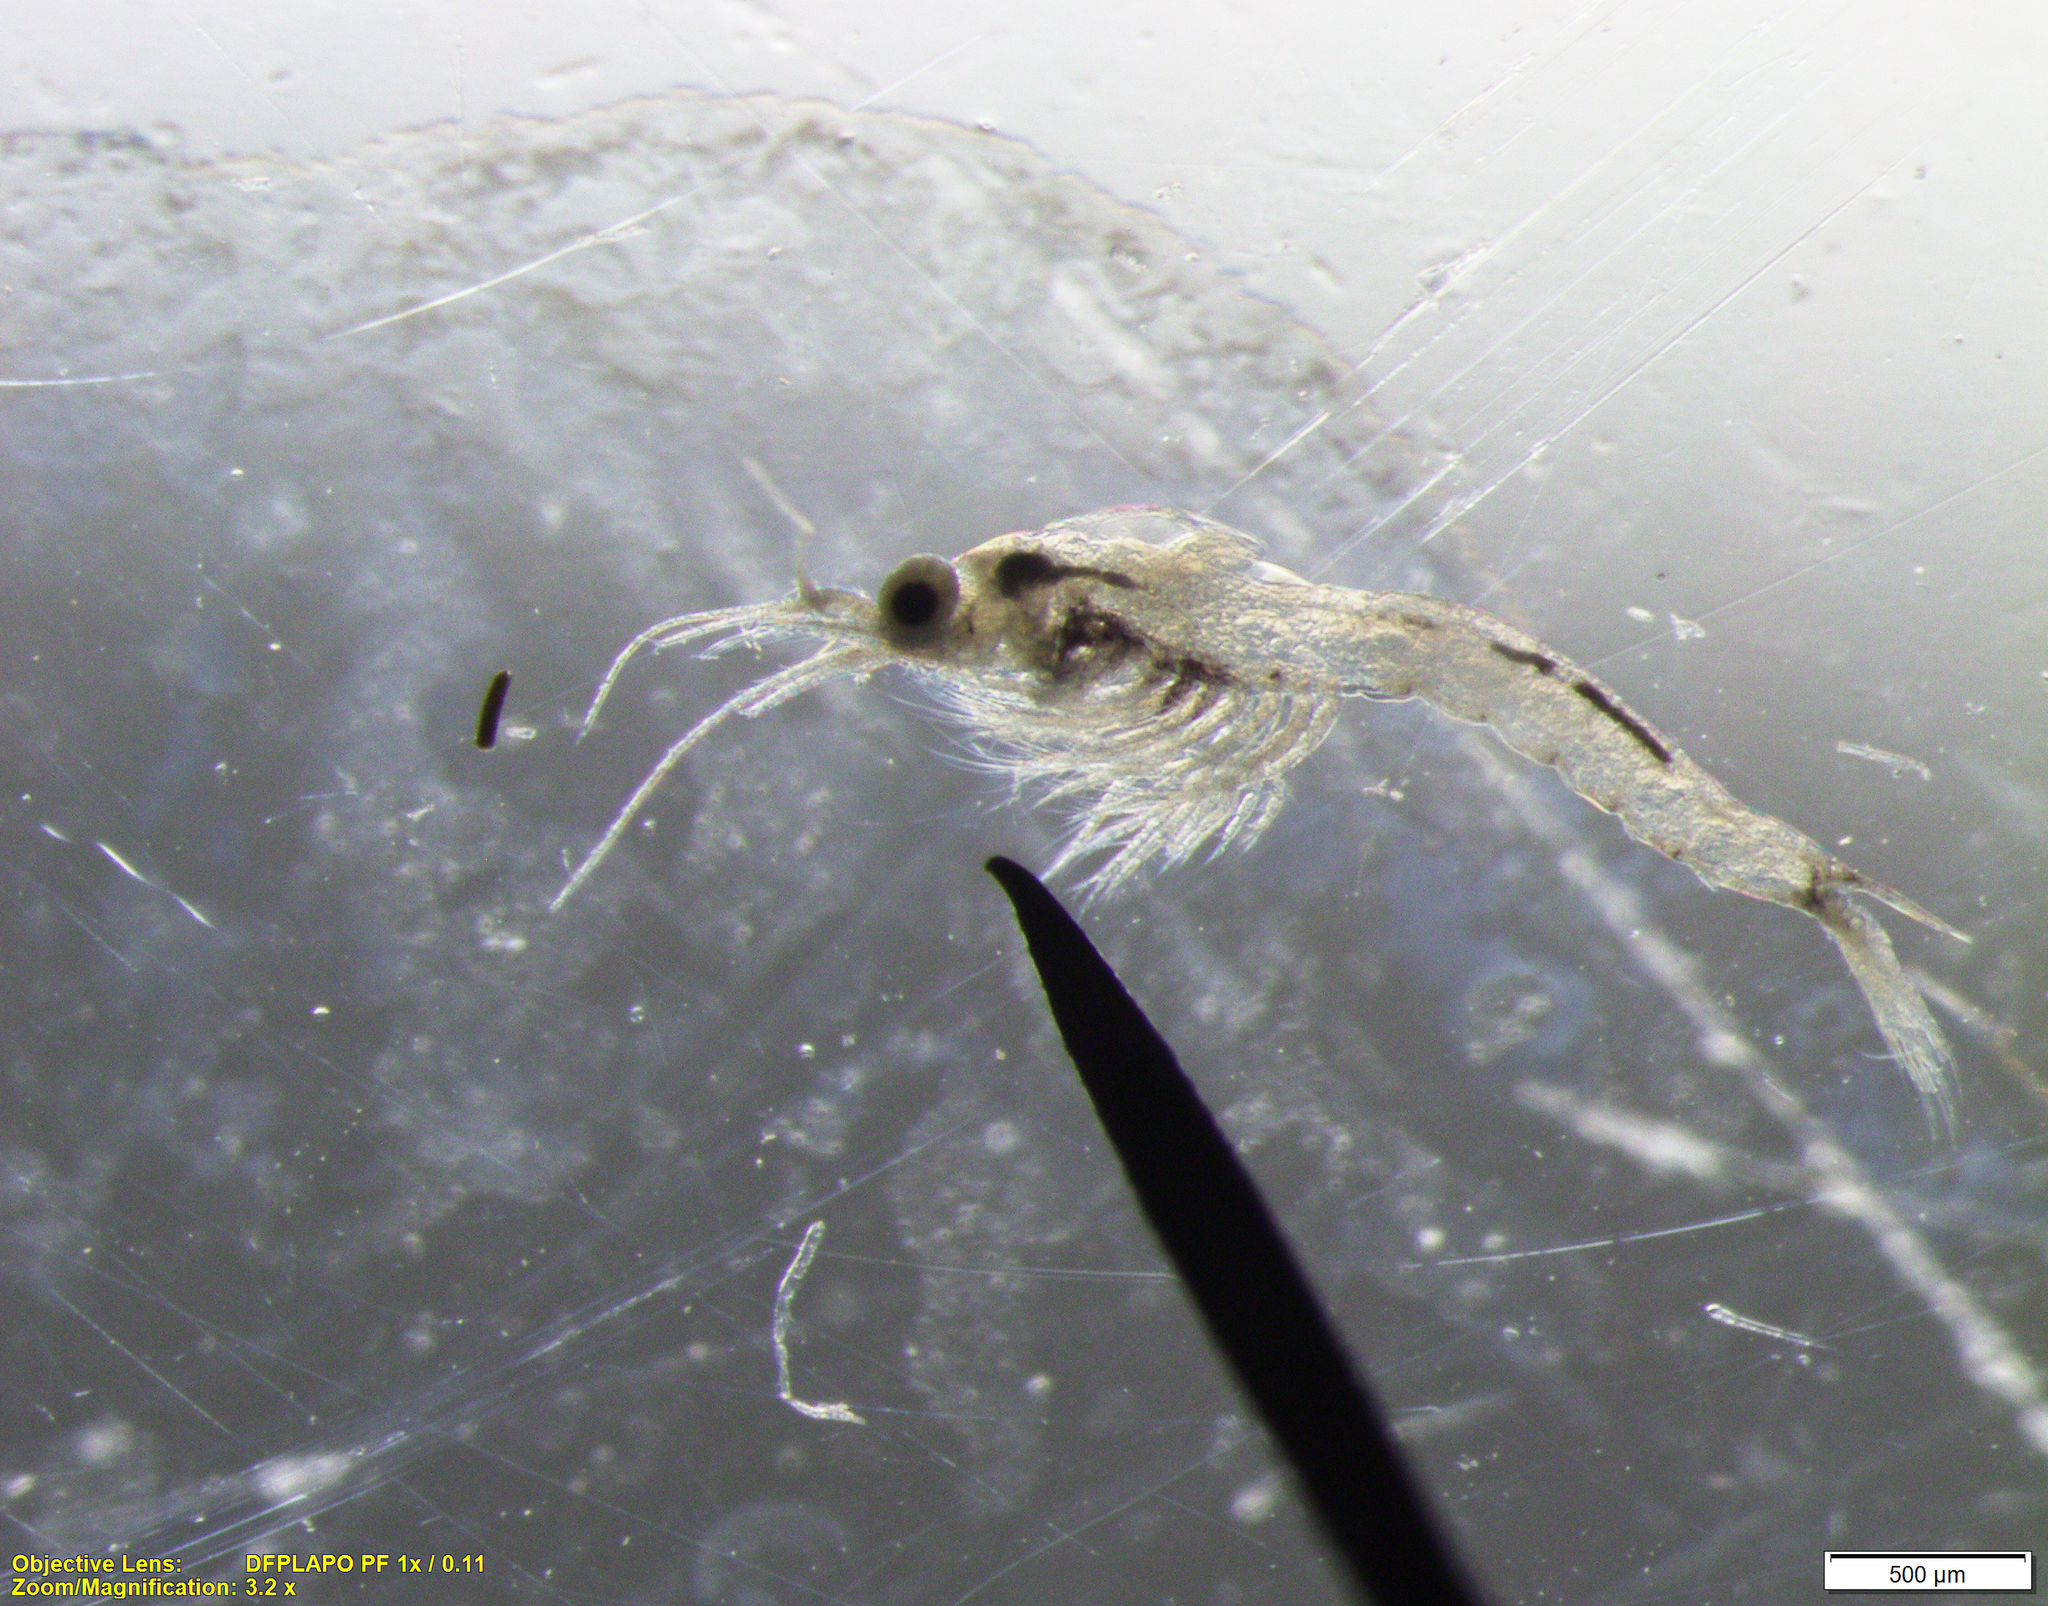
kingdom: Animalia
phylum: Arthropoda
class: Malacostraca
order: Mysida
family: Mysidae
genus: Neomysis
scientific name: Neomysis americana
